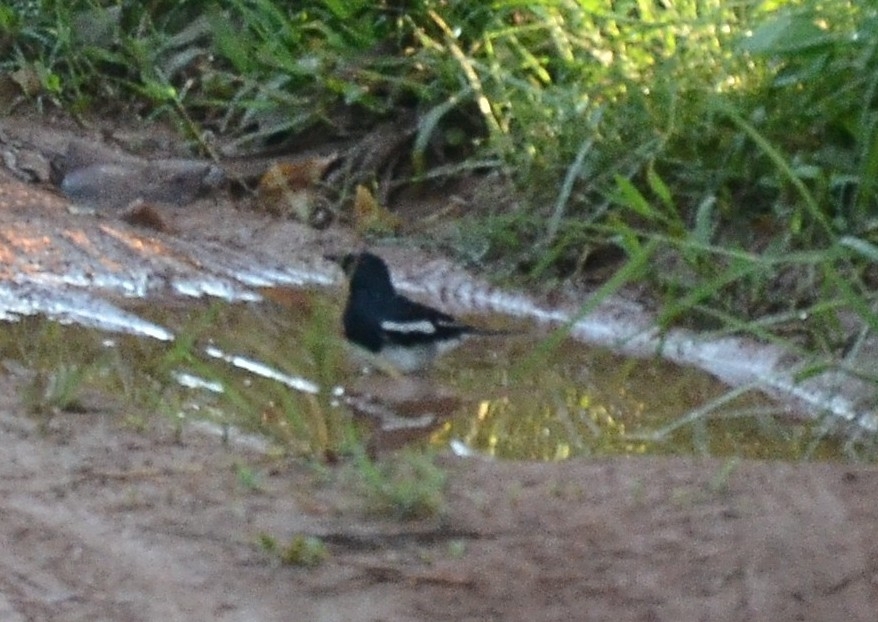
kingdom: Animalia
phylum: Chordata
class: Aves
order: Passeriformes
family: Muscicapidae
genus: Copsychus
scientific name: Copsychus saularis
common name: Oriental magpie-robin
